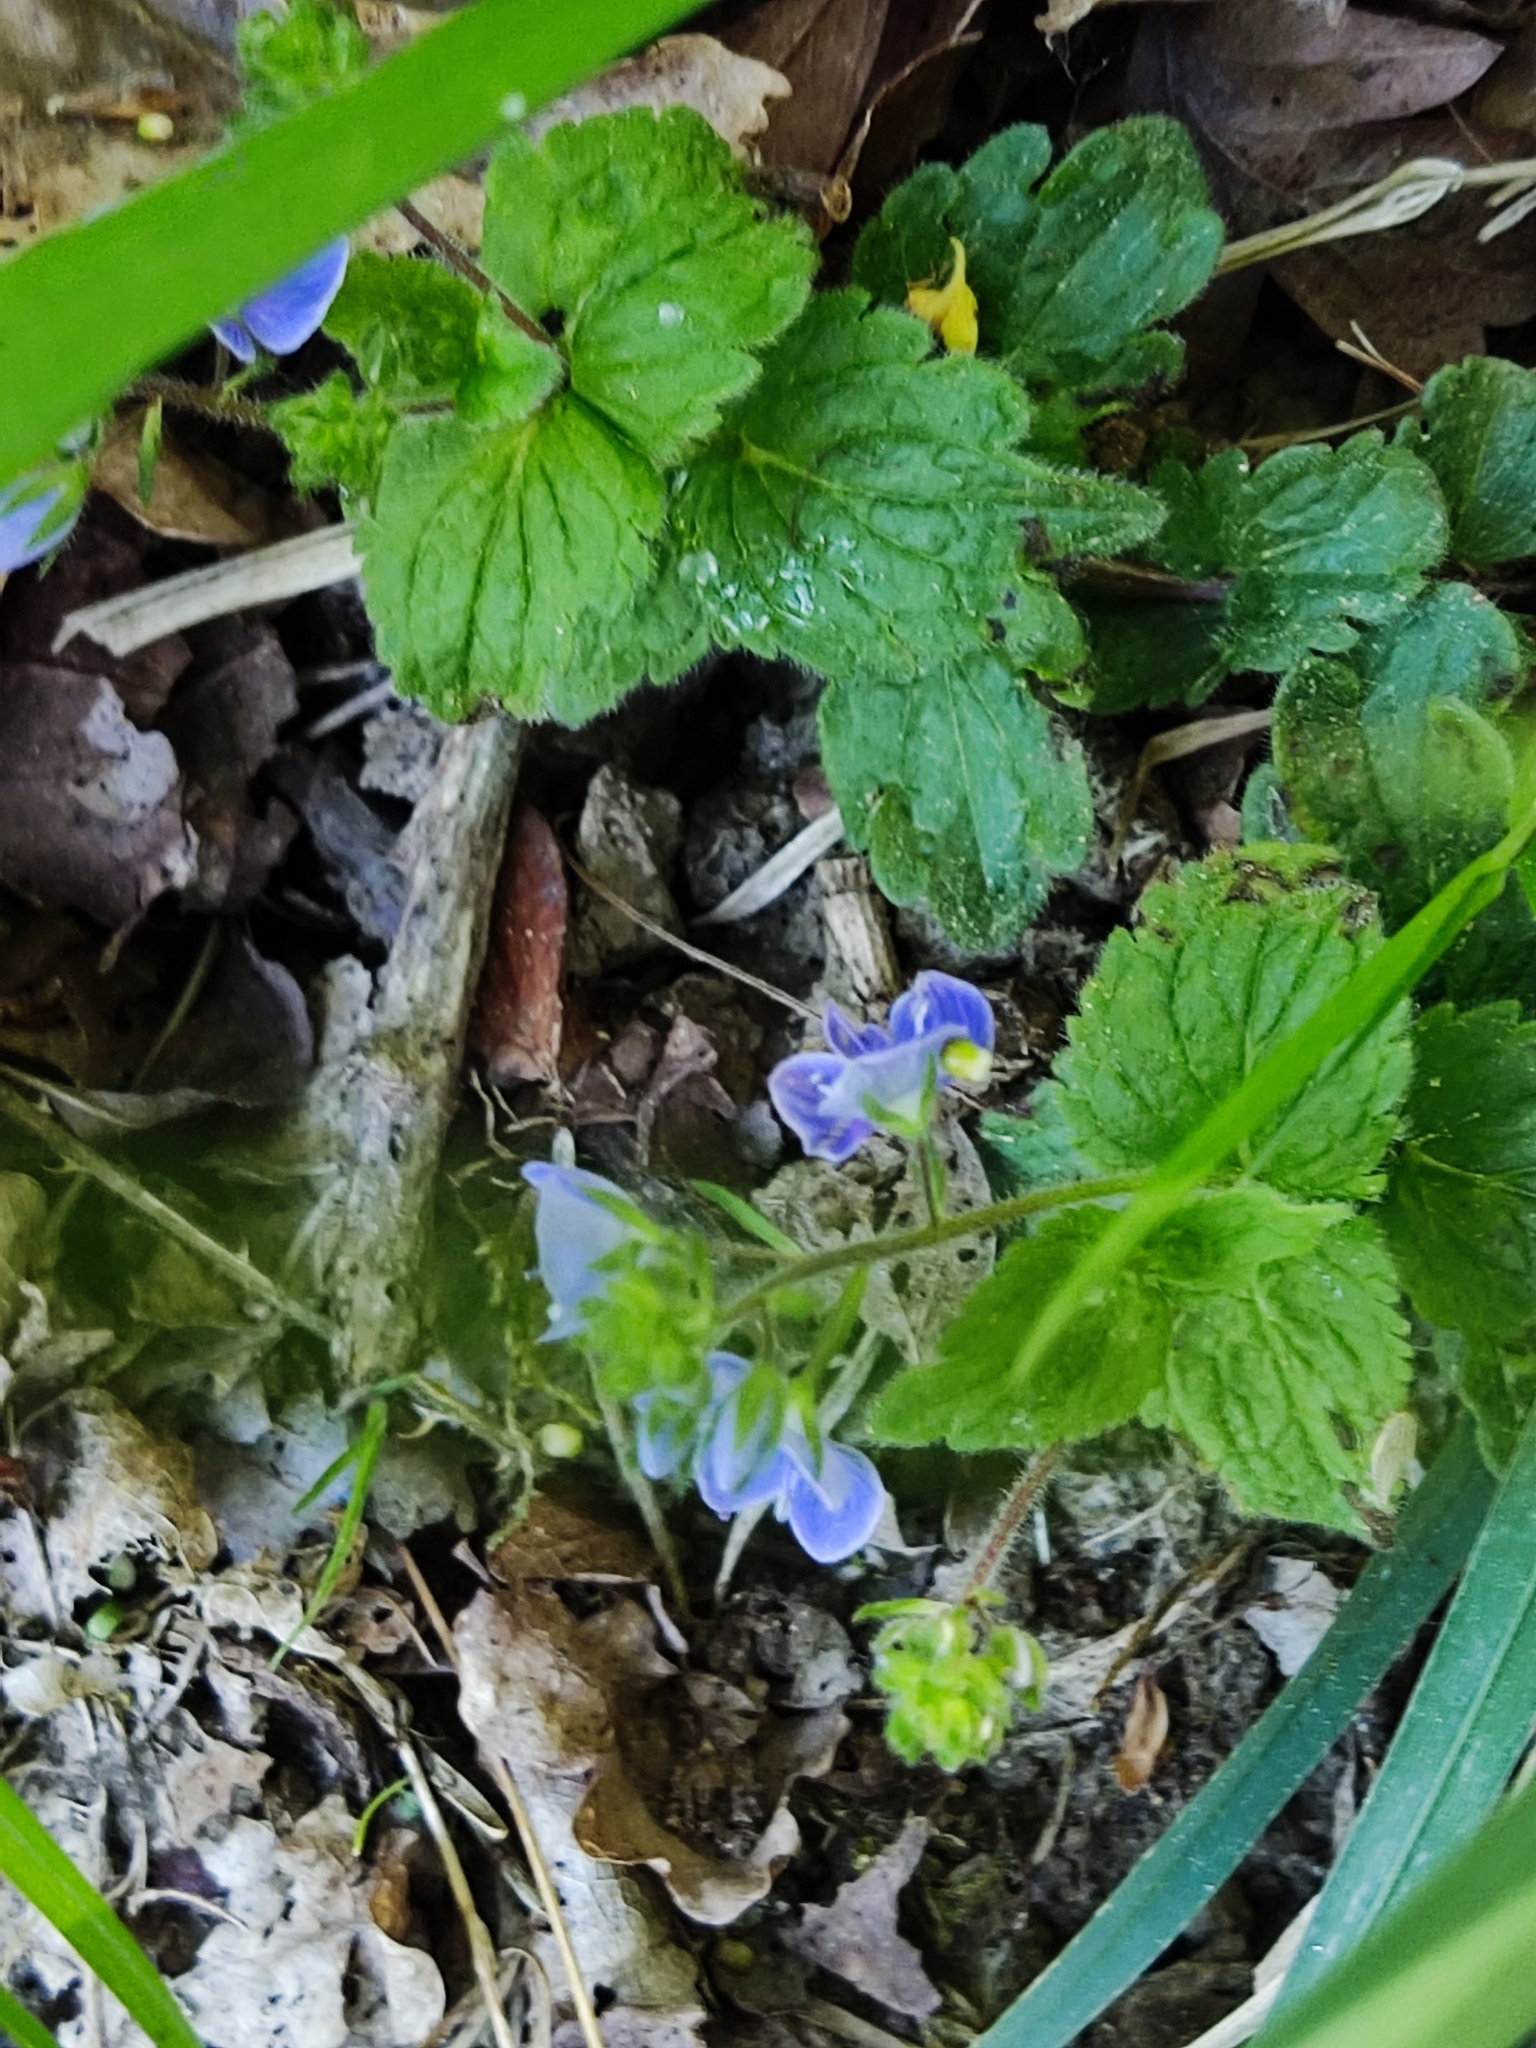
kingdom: Plantae
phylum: Tracheophyta
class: Magnoliopsida
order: Lamiales
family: Plantaginaceae
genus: Veronica
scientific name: Veronica chamaedrys
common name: Germander speedwell
